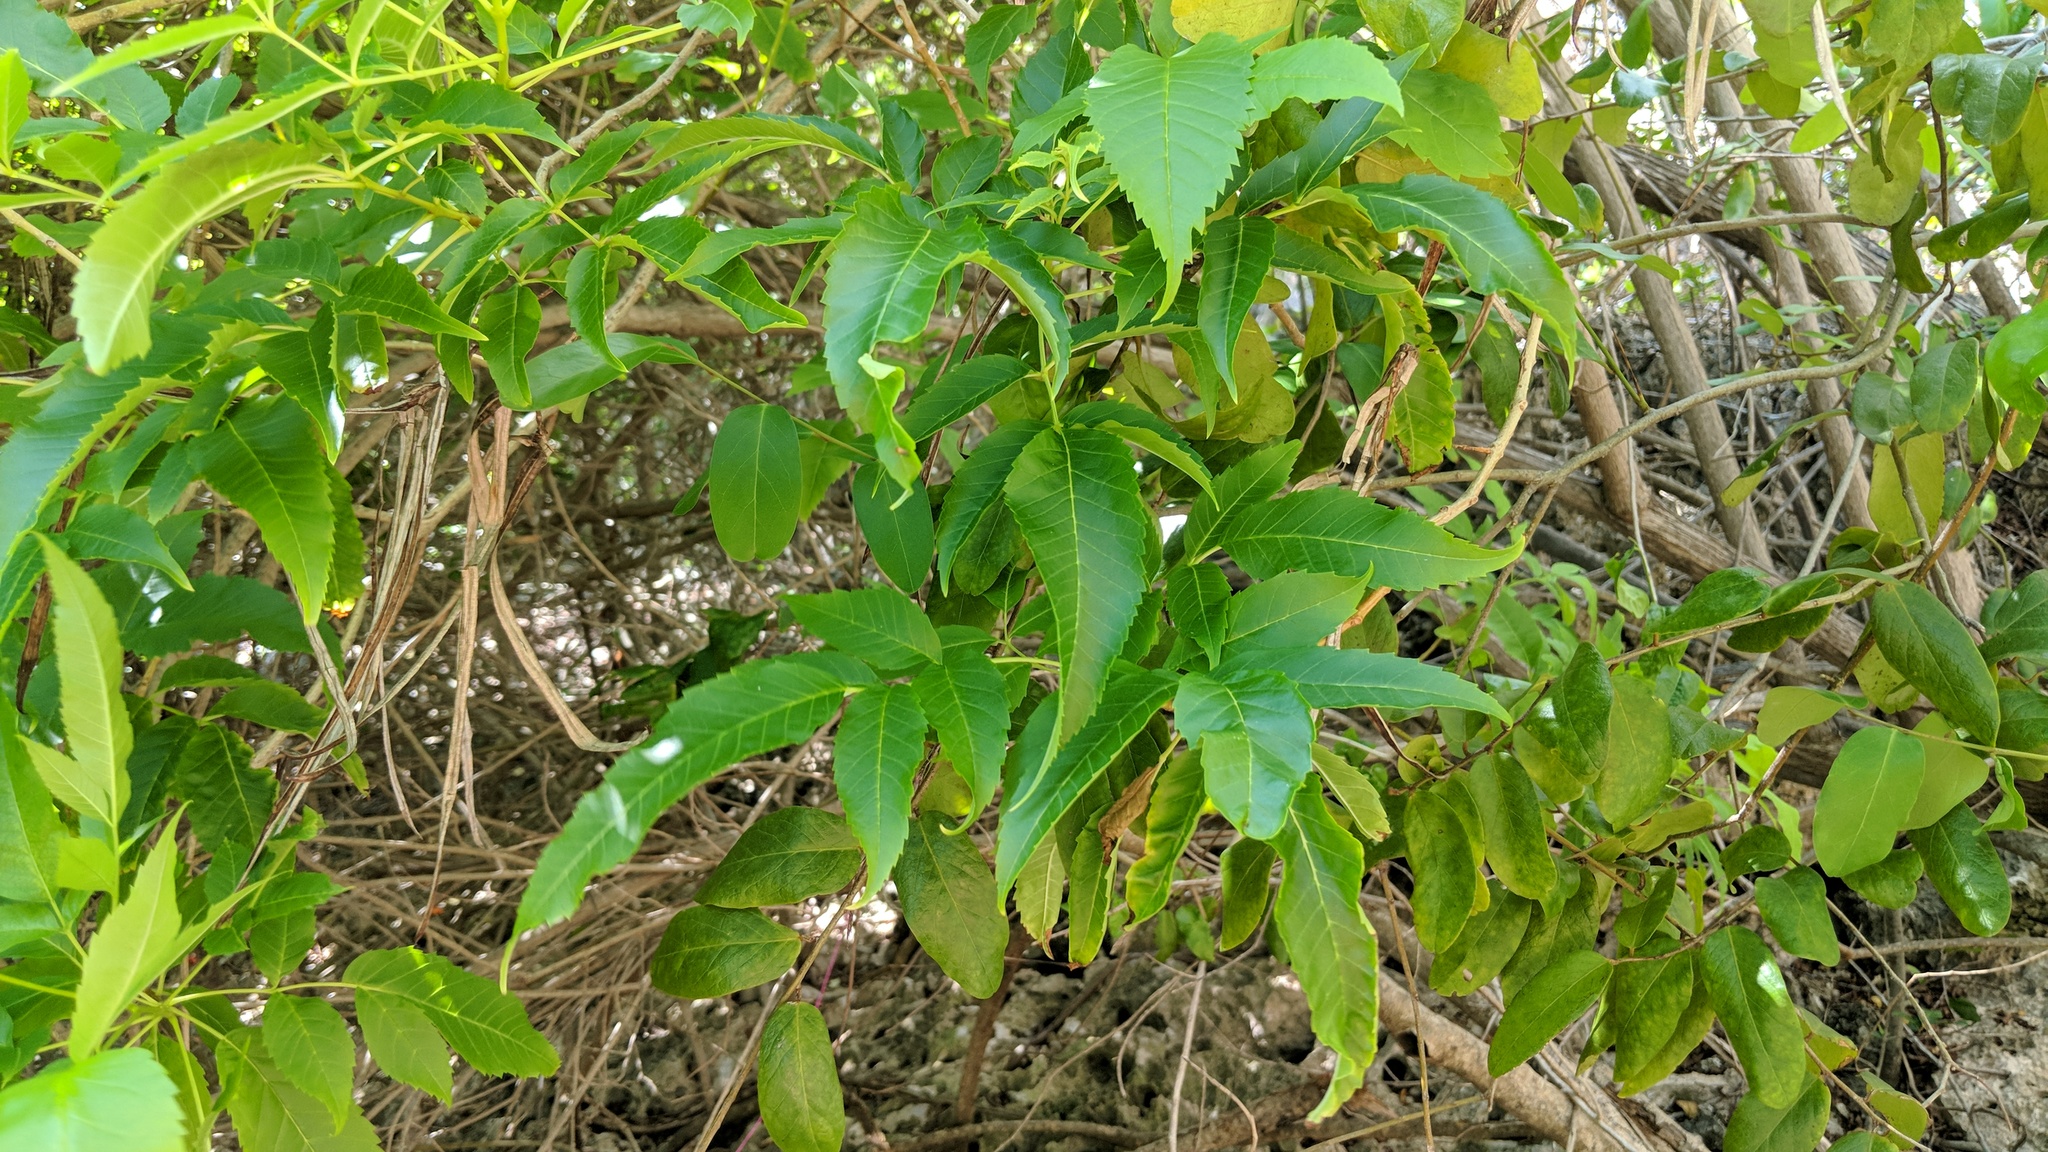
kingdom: Plantae
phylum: Tracheophyta
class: Magnoliopsida
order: Lamiales
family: Bignoniaceae
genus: Tecoma
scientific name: Tecoma stans
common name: Yellow trumpetbush
